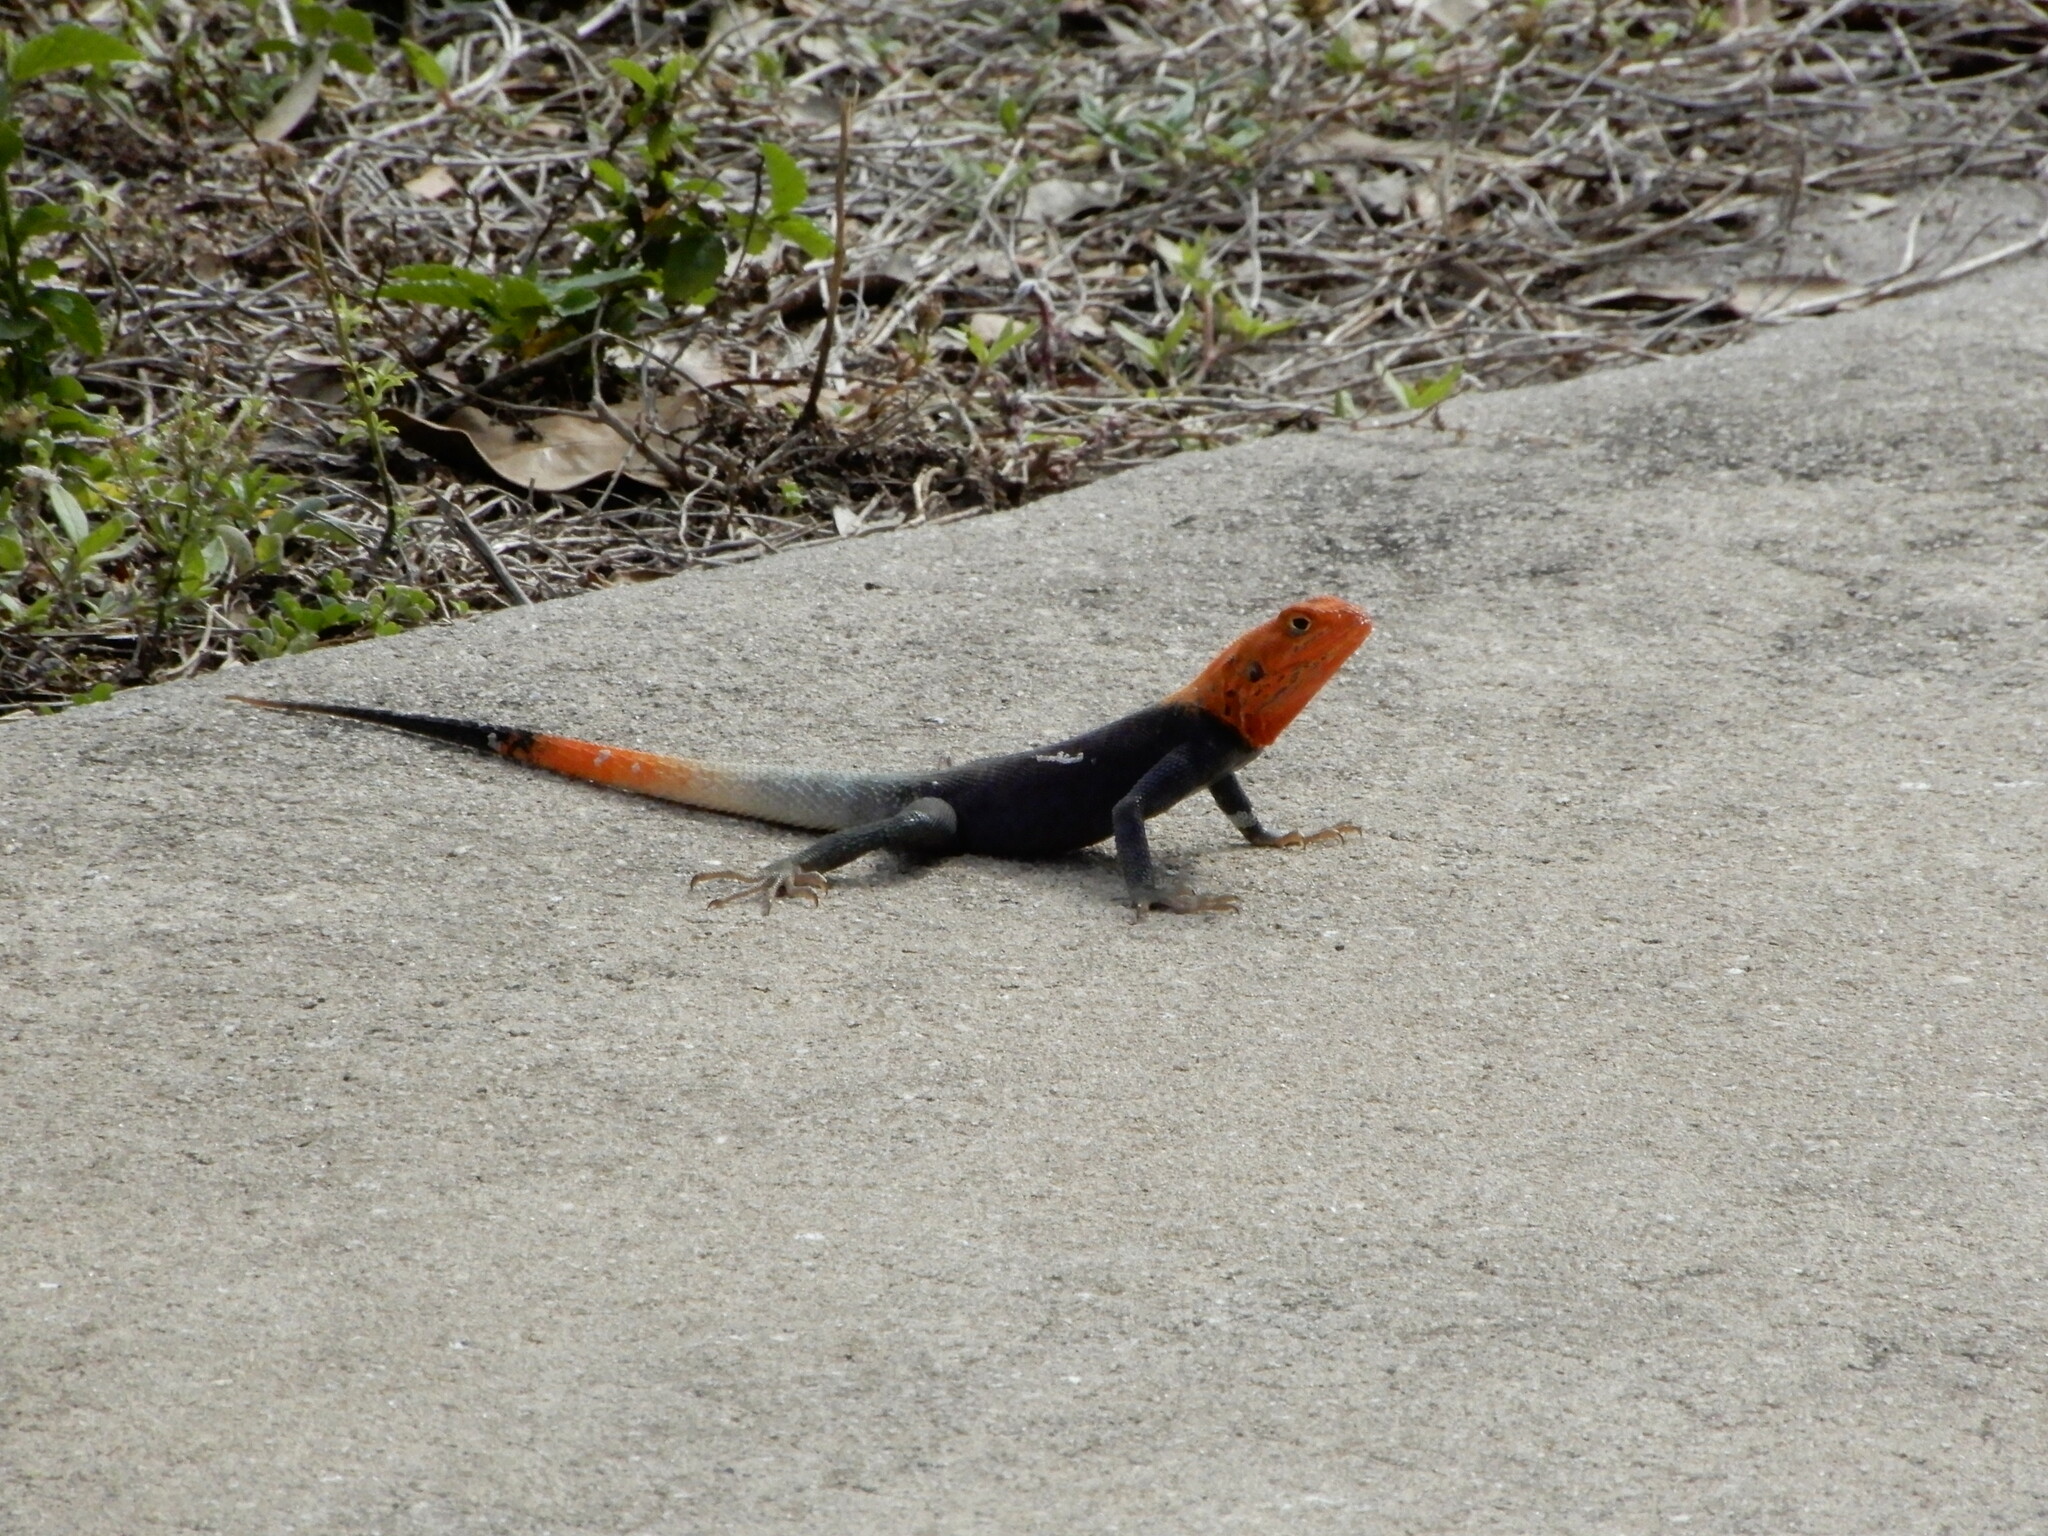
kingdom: Animalia
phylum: Chordata
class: Squamata
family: Agamidae
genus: Agama
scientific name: Agama picticauda
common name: Red-headed agama
